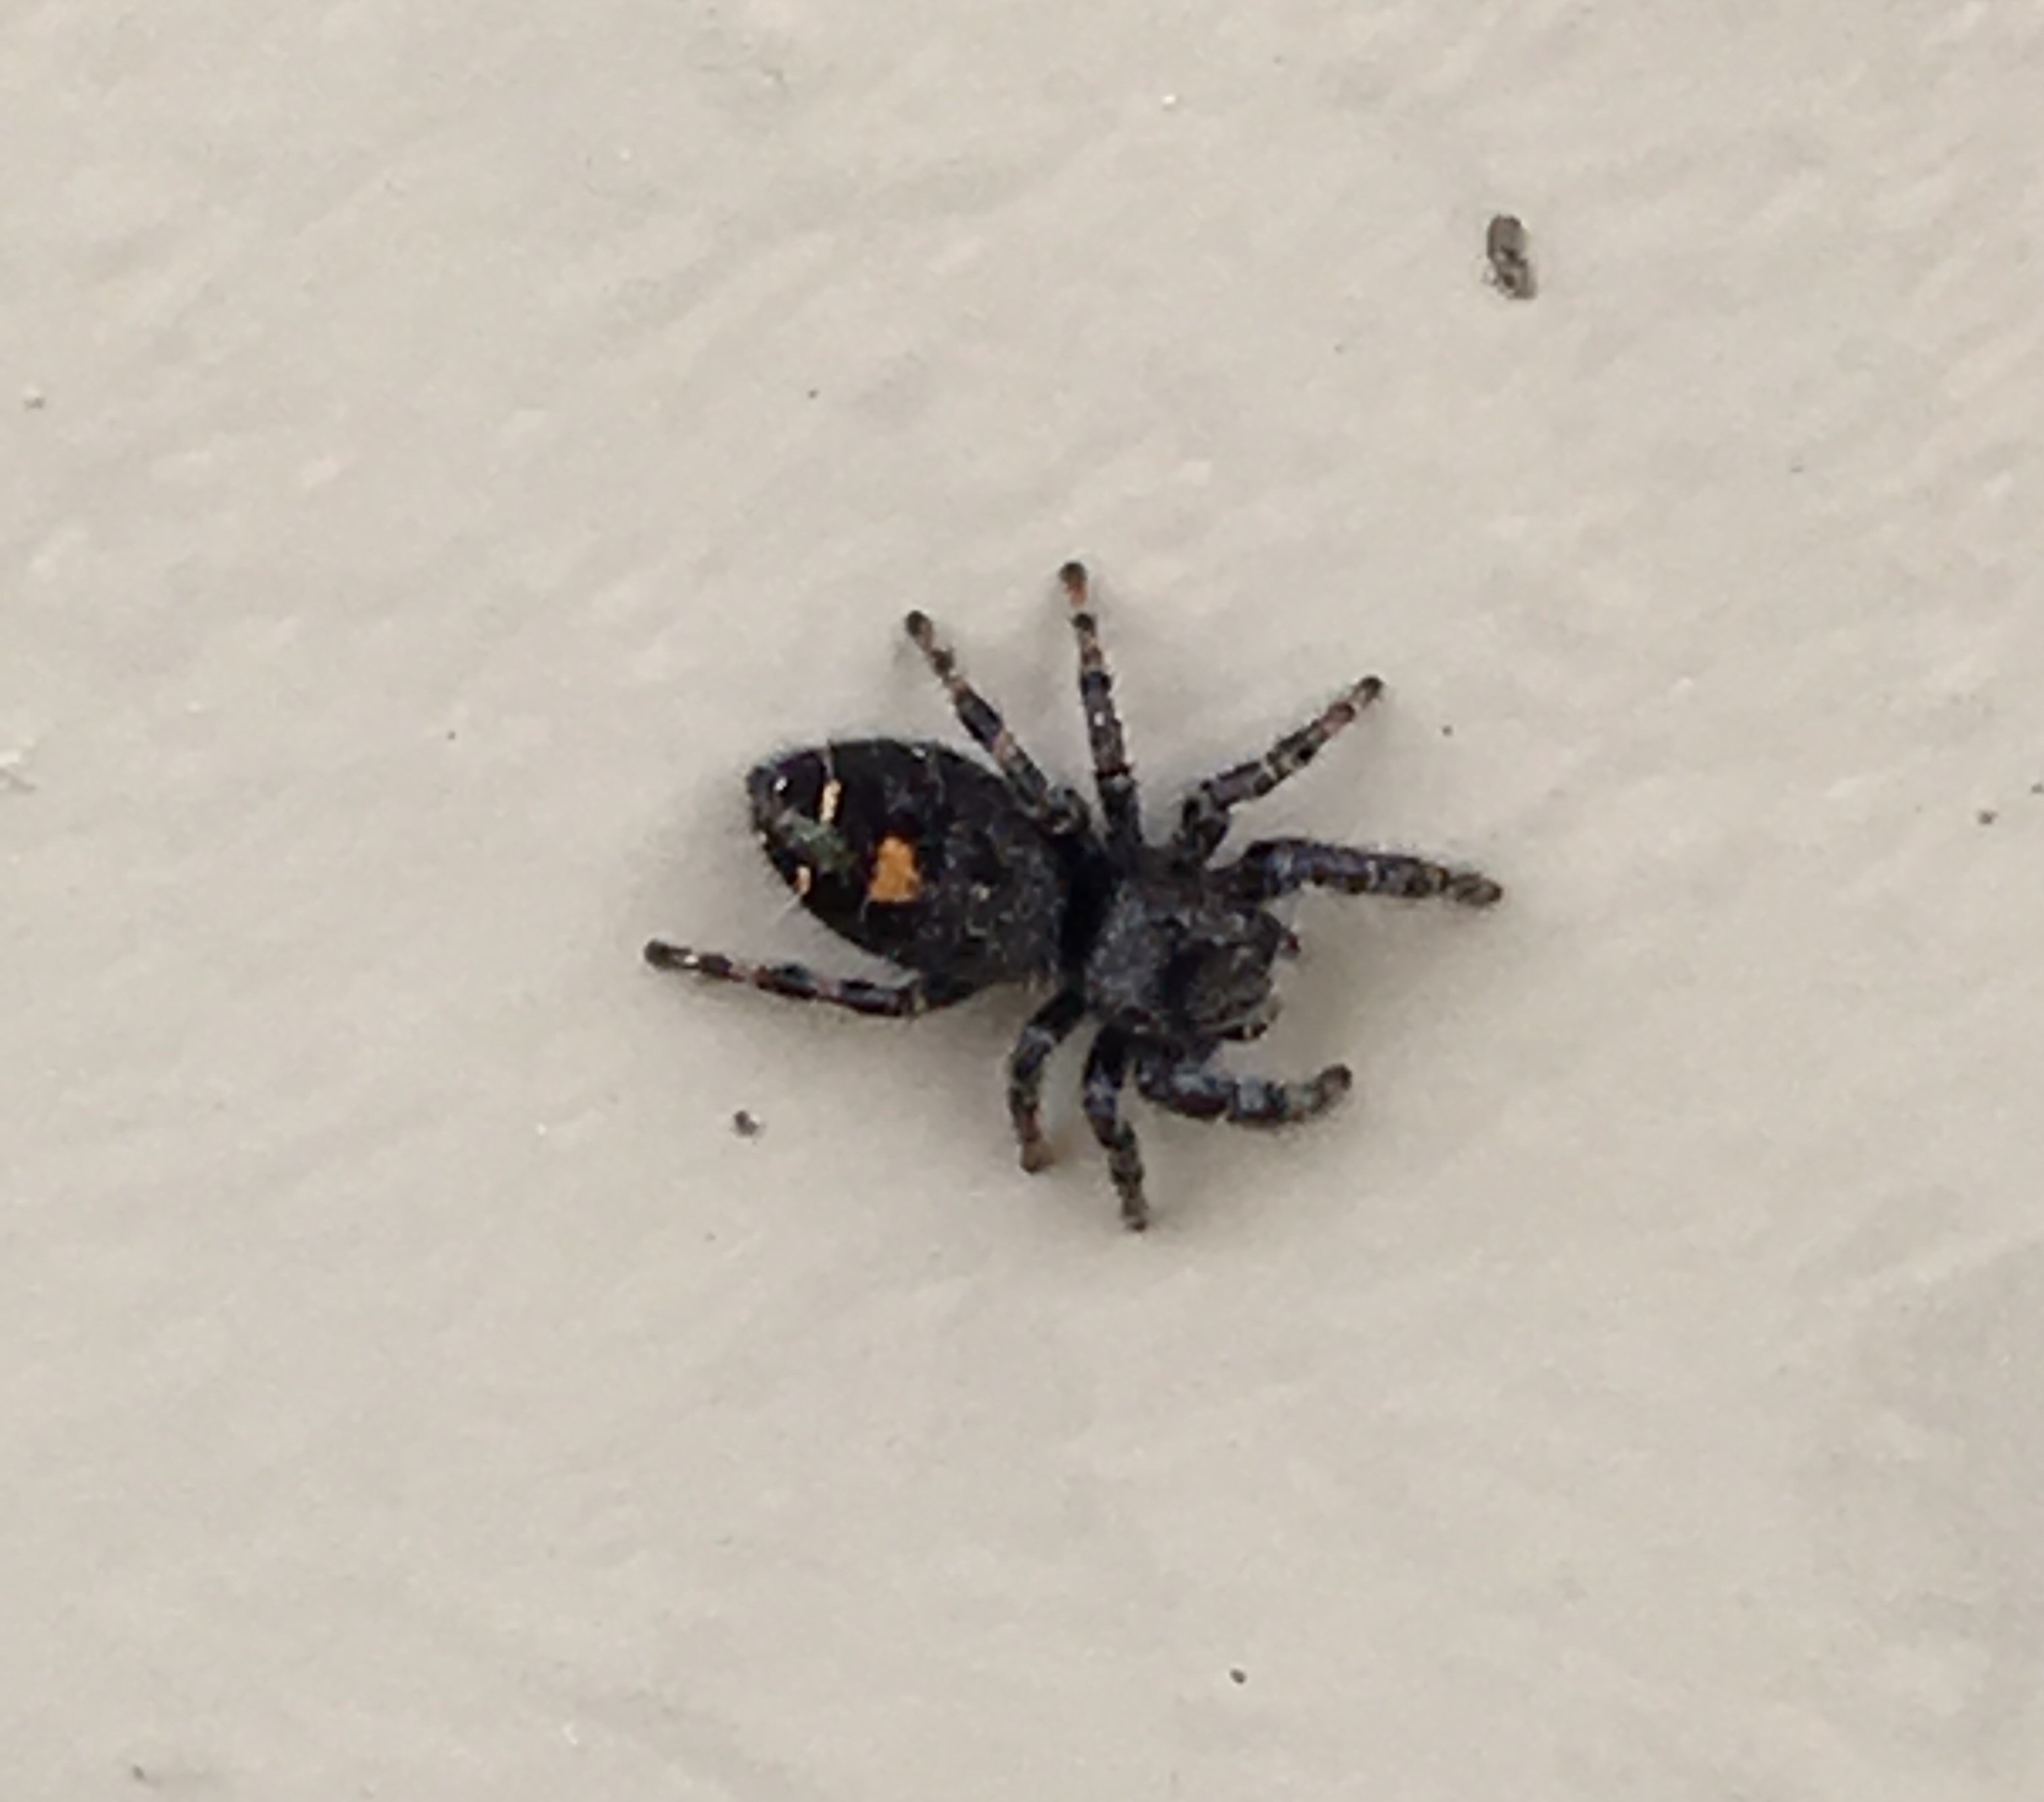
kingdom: Animalia
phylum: Arthropoda
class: Arachnida
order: Araneae
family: Salticidae
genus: Phidippus
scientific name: Phidippus audax
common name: Bold jumper
